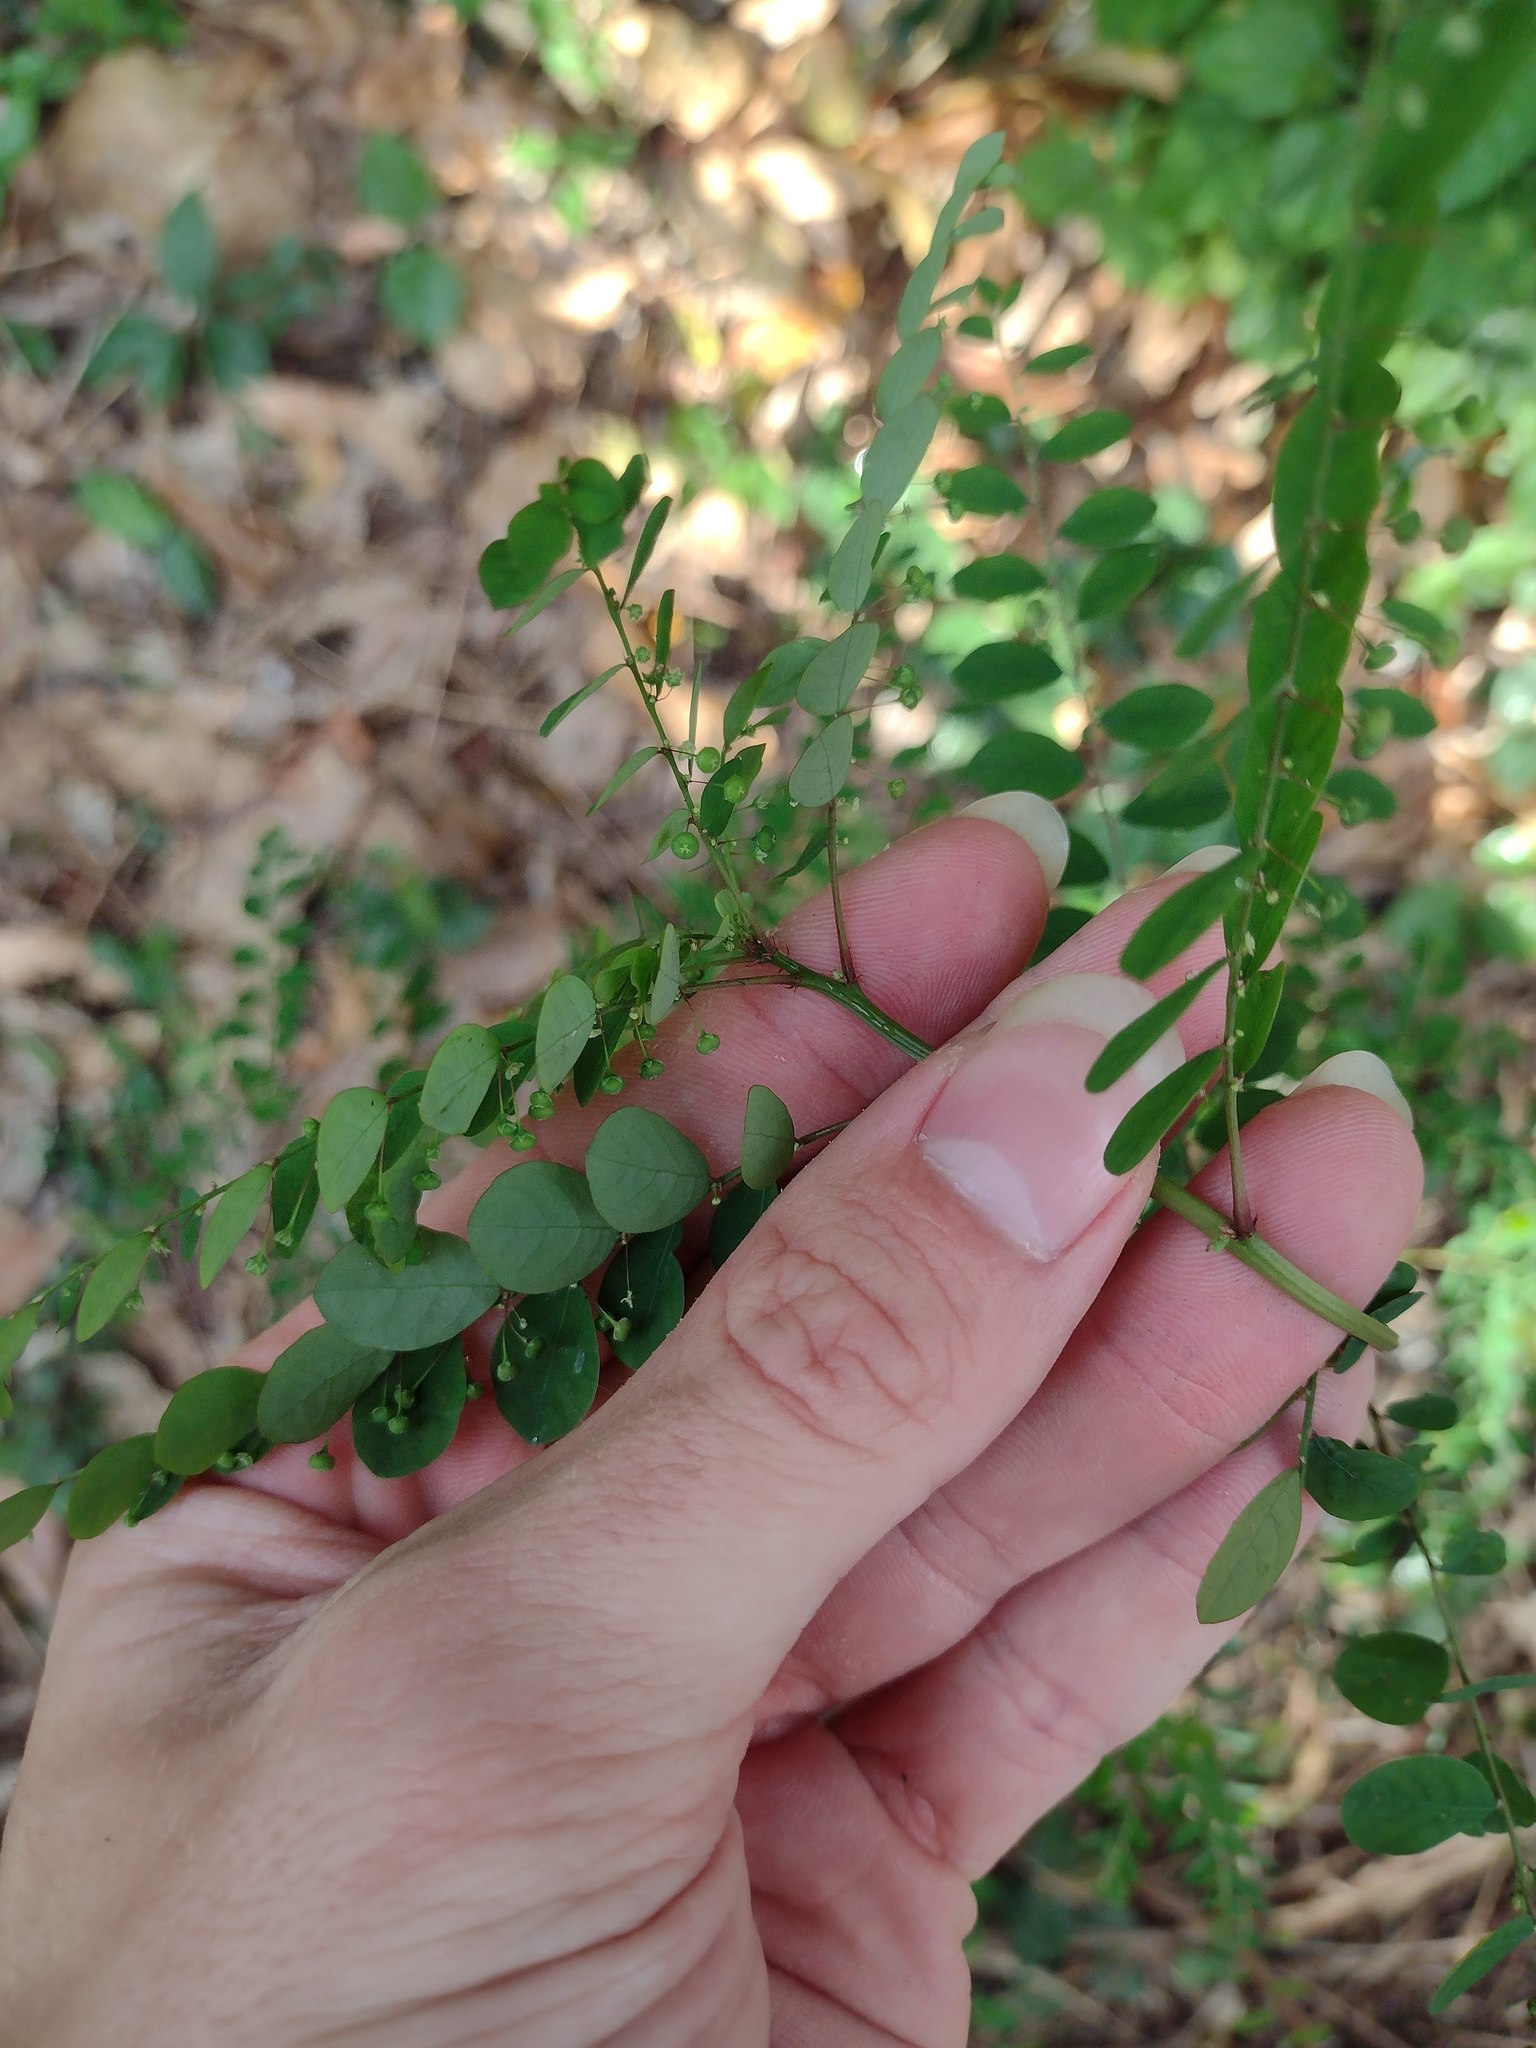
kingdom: Plantae
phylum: Tracheophyta
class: Magnoliopsida
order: Malpighiales
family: Phyllanthaceae
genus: Phyllanthus
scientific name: Phyllanthus tenellus
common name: Mascarene island leaf-flower
